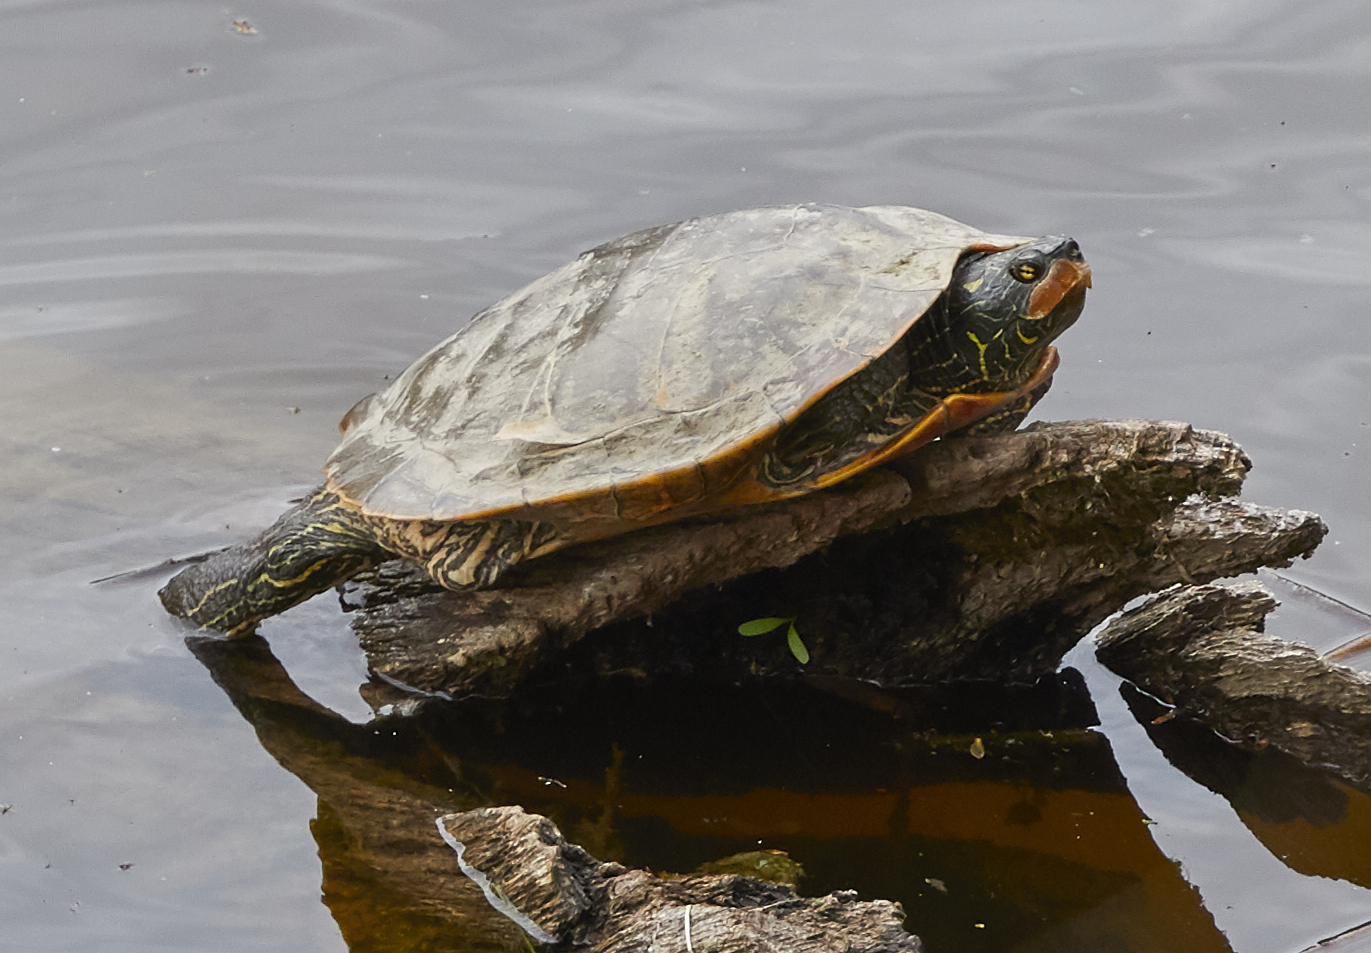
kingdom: Animalia
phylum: Chordata
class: Testudines
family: Emydidae
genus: Graptemys
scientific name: Graptemys geographica
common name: Common map turtle
